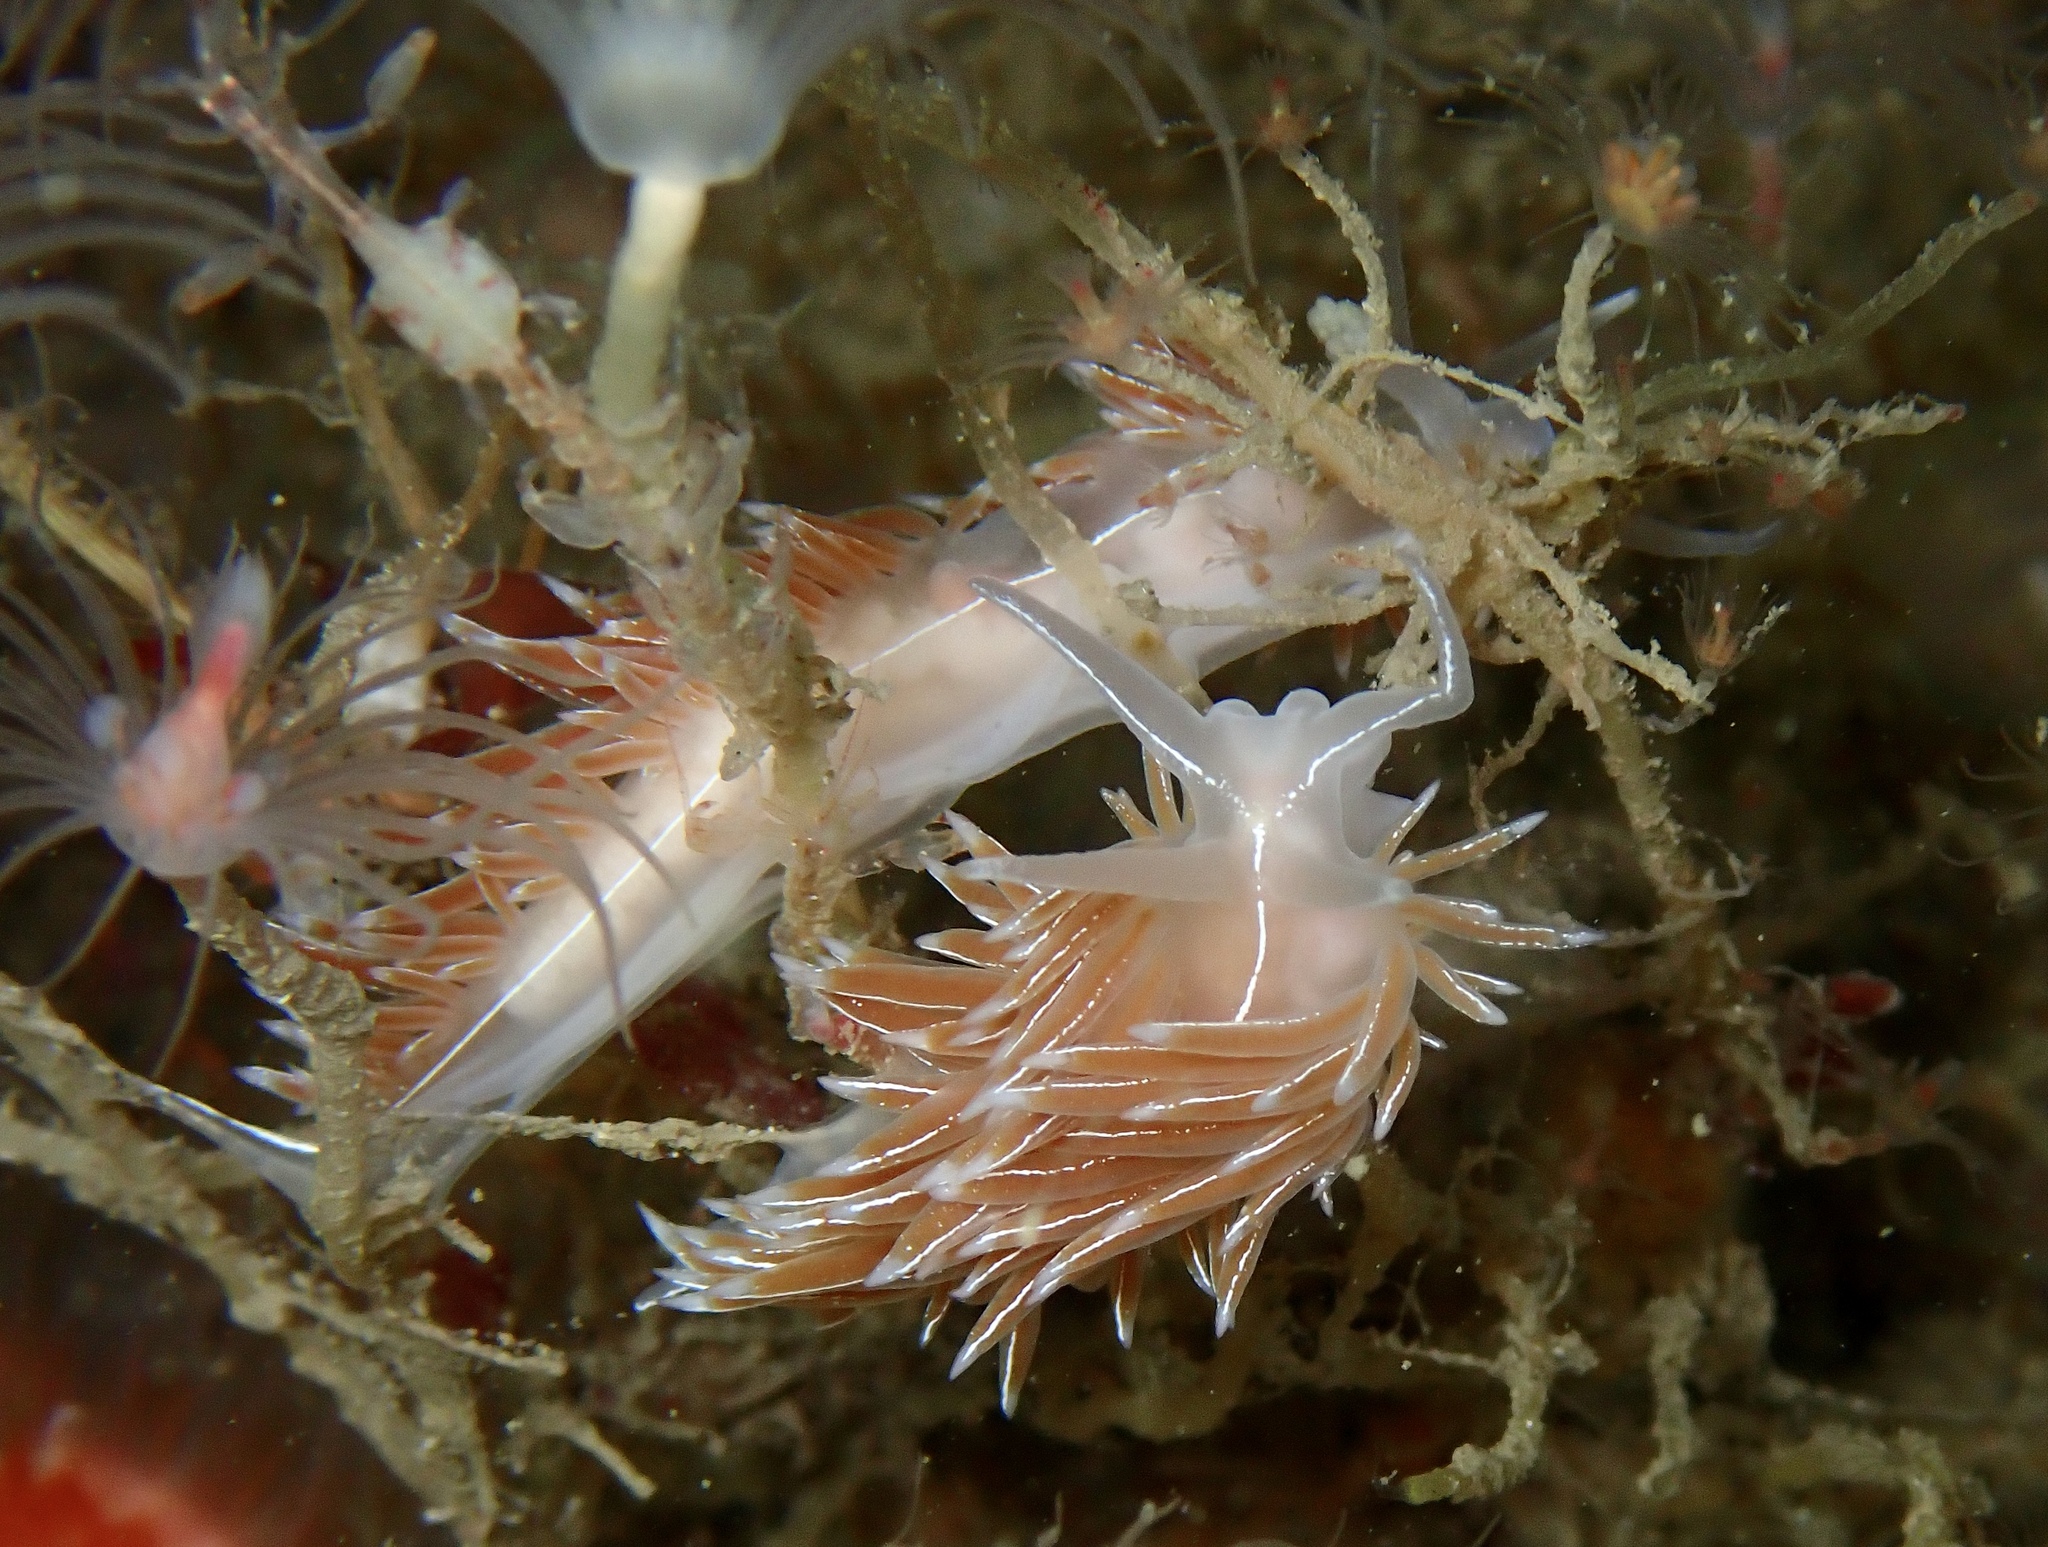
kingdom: Animalia
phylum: Mollusca
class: Gastropoda
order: Nudibranchia
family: Coryphellidae
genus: Coryphella
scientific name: Coryphella chriskaugei
